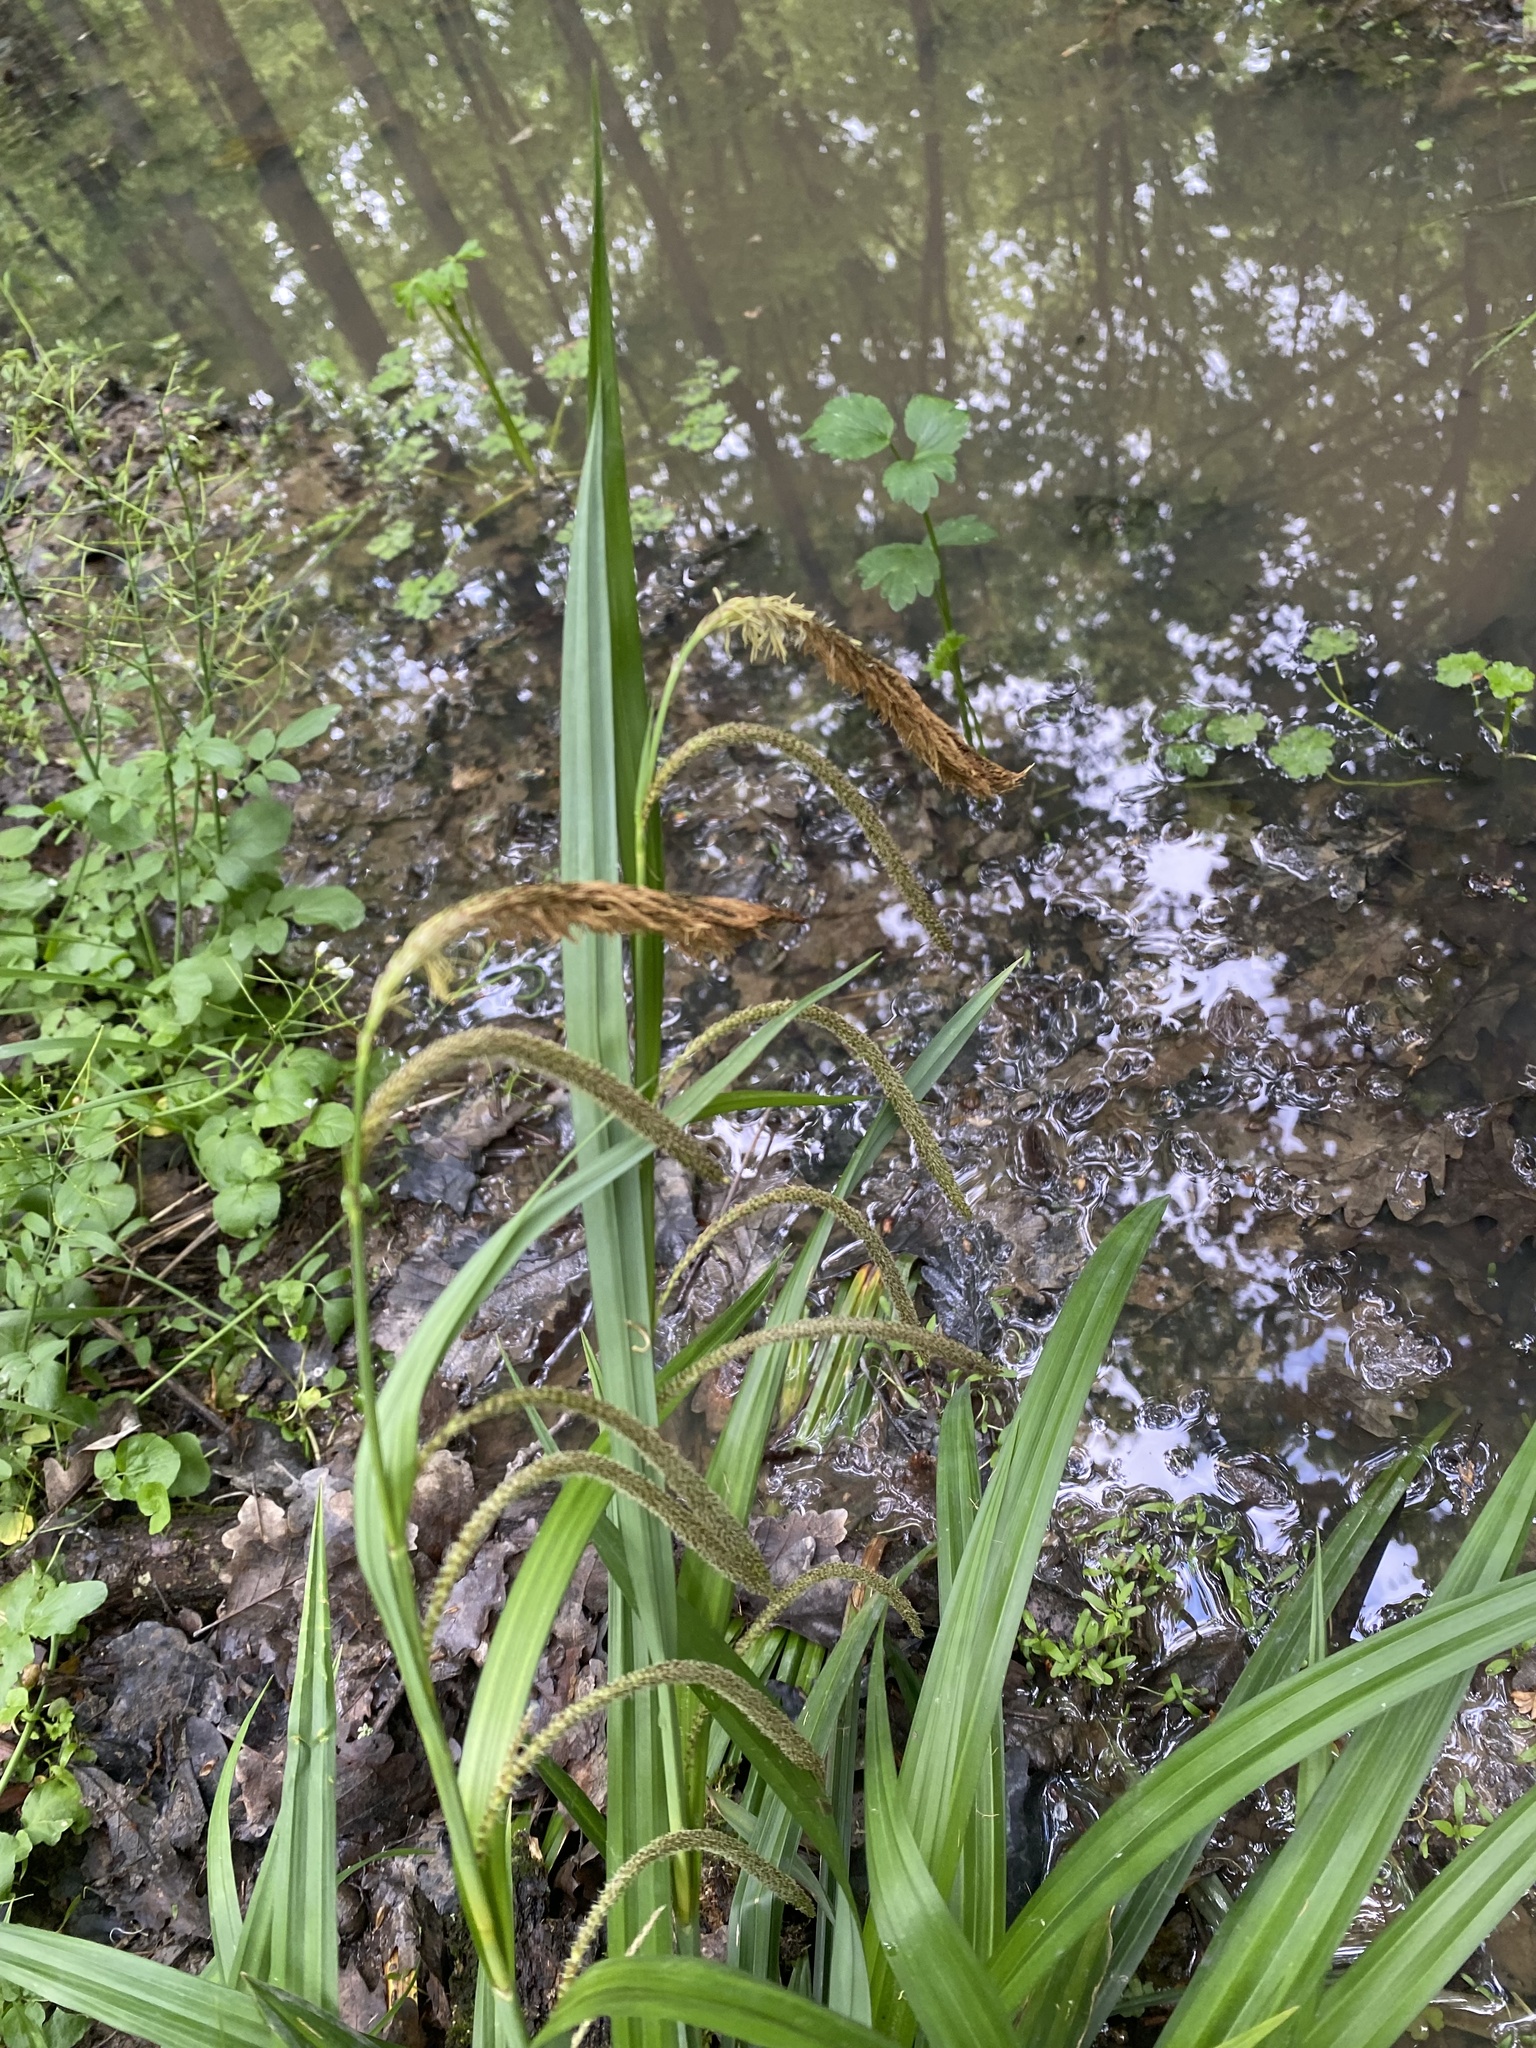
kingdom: Plantae
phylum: Tracheophyta
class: Liliopsida
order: Poales
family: Cyperaceae
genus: Carex
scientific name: Carex pendula
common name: Pendulous sedge
